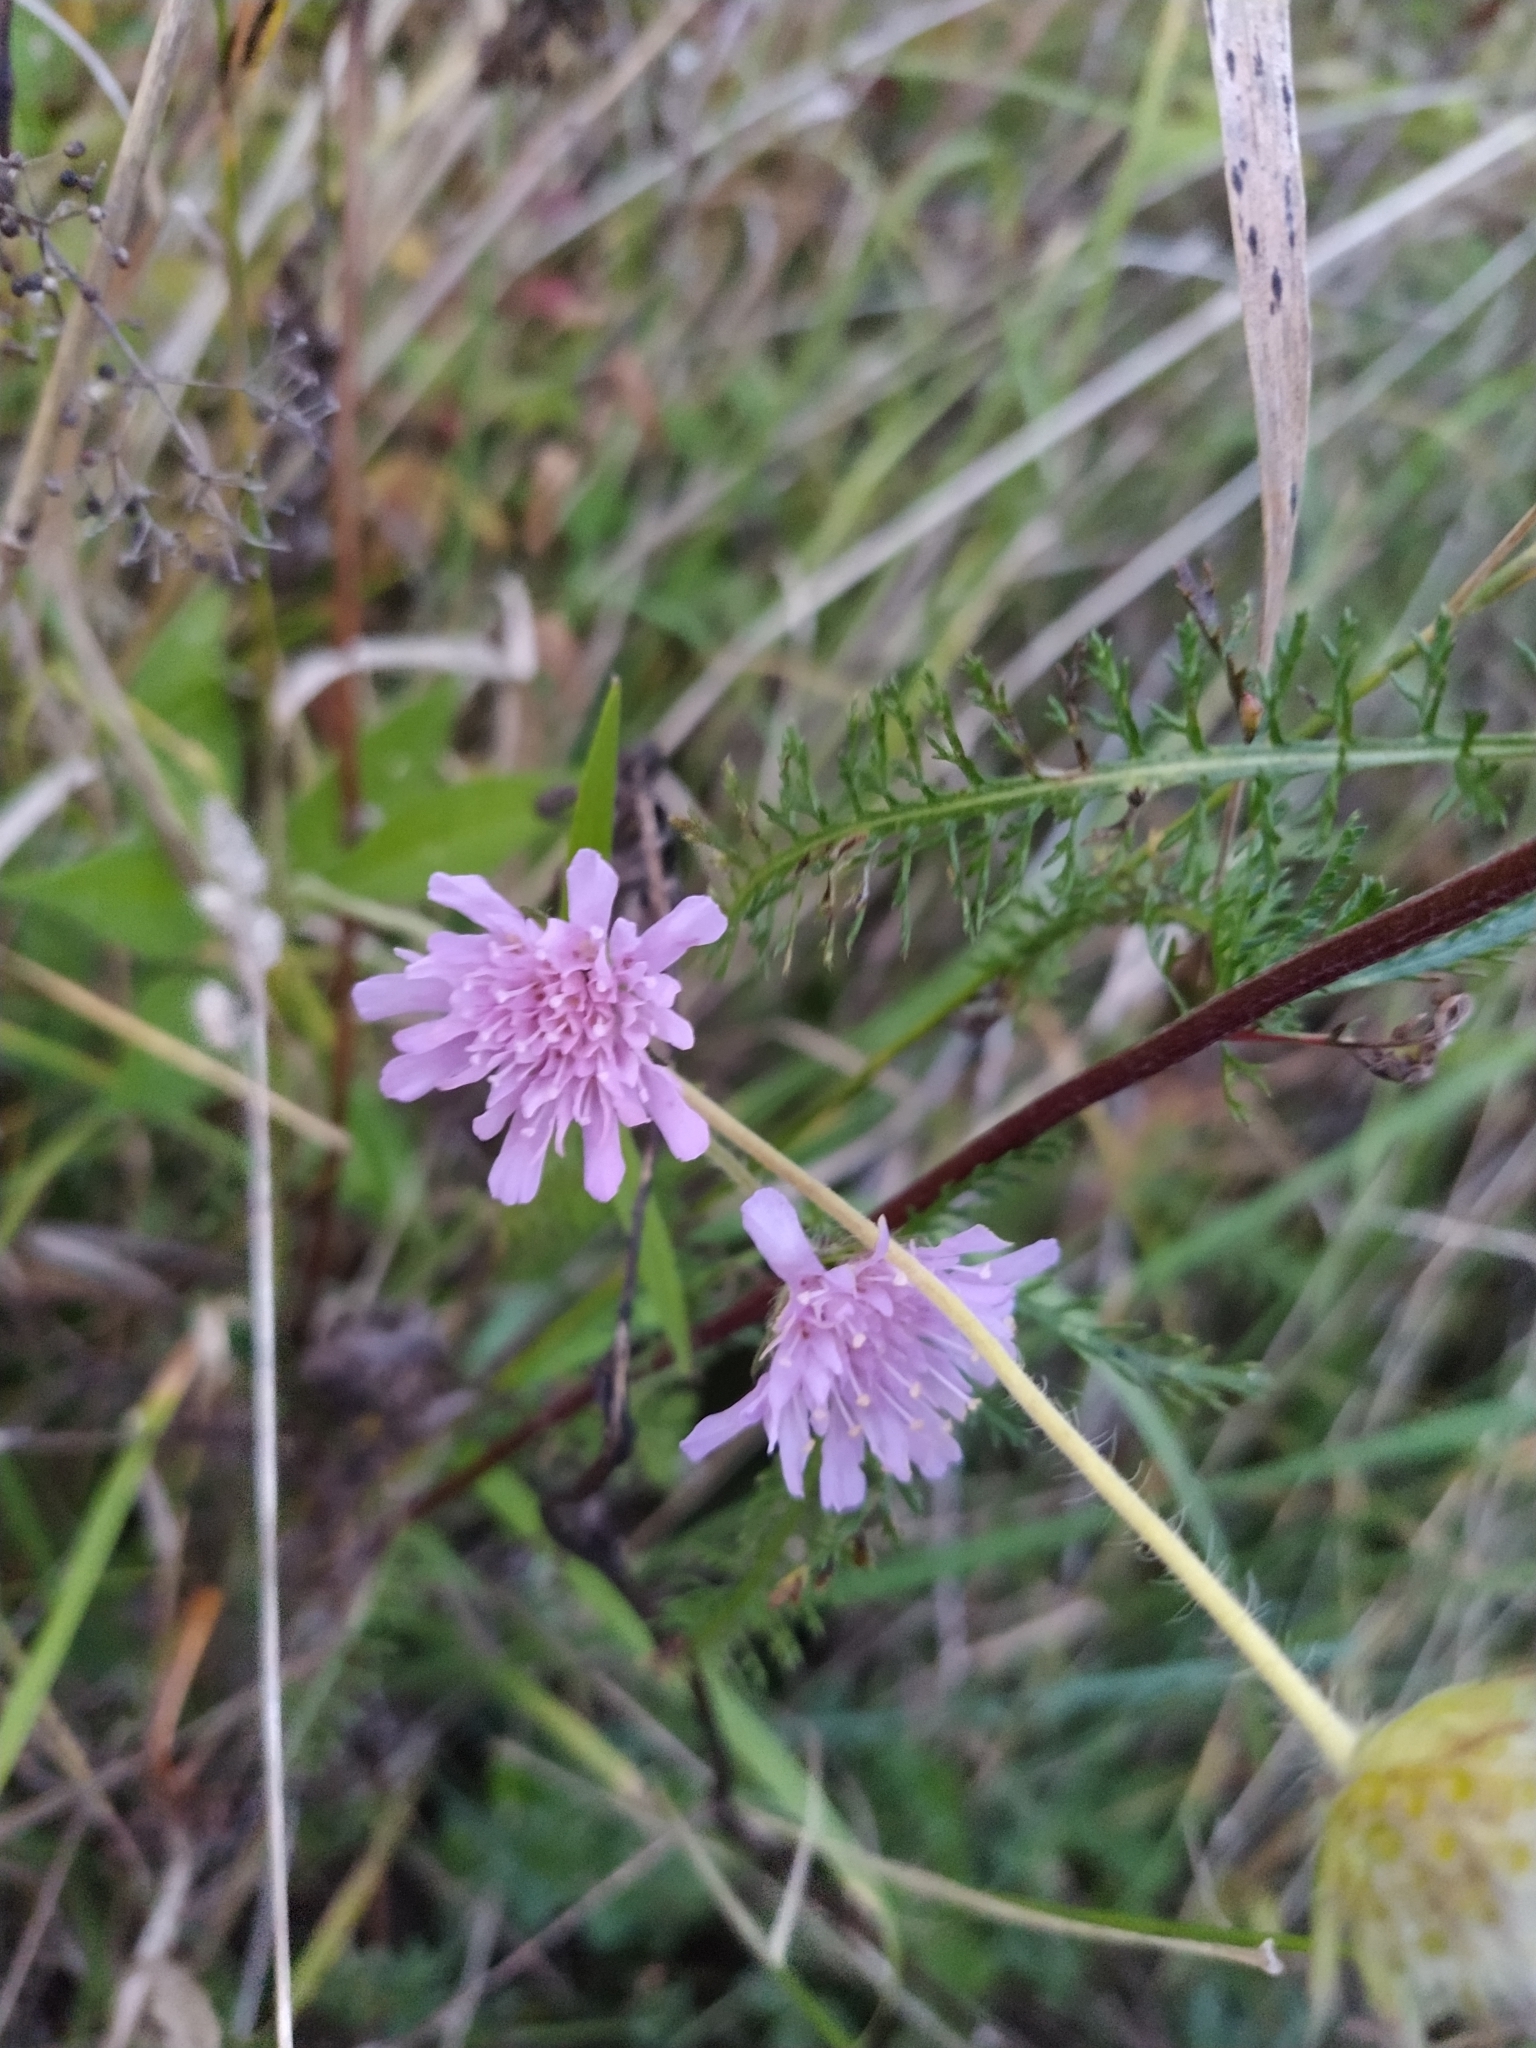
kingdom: Plantae
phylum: Tracheophyta
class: Magnoliopsida
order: Dipsacales
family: Caprifoliaceae
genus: Knautia
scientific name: Knautia arvensis
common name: Field scabiosa
